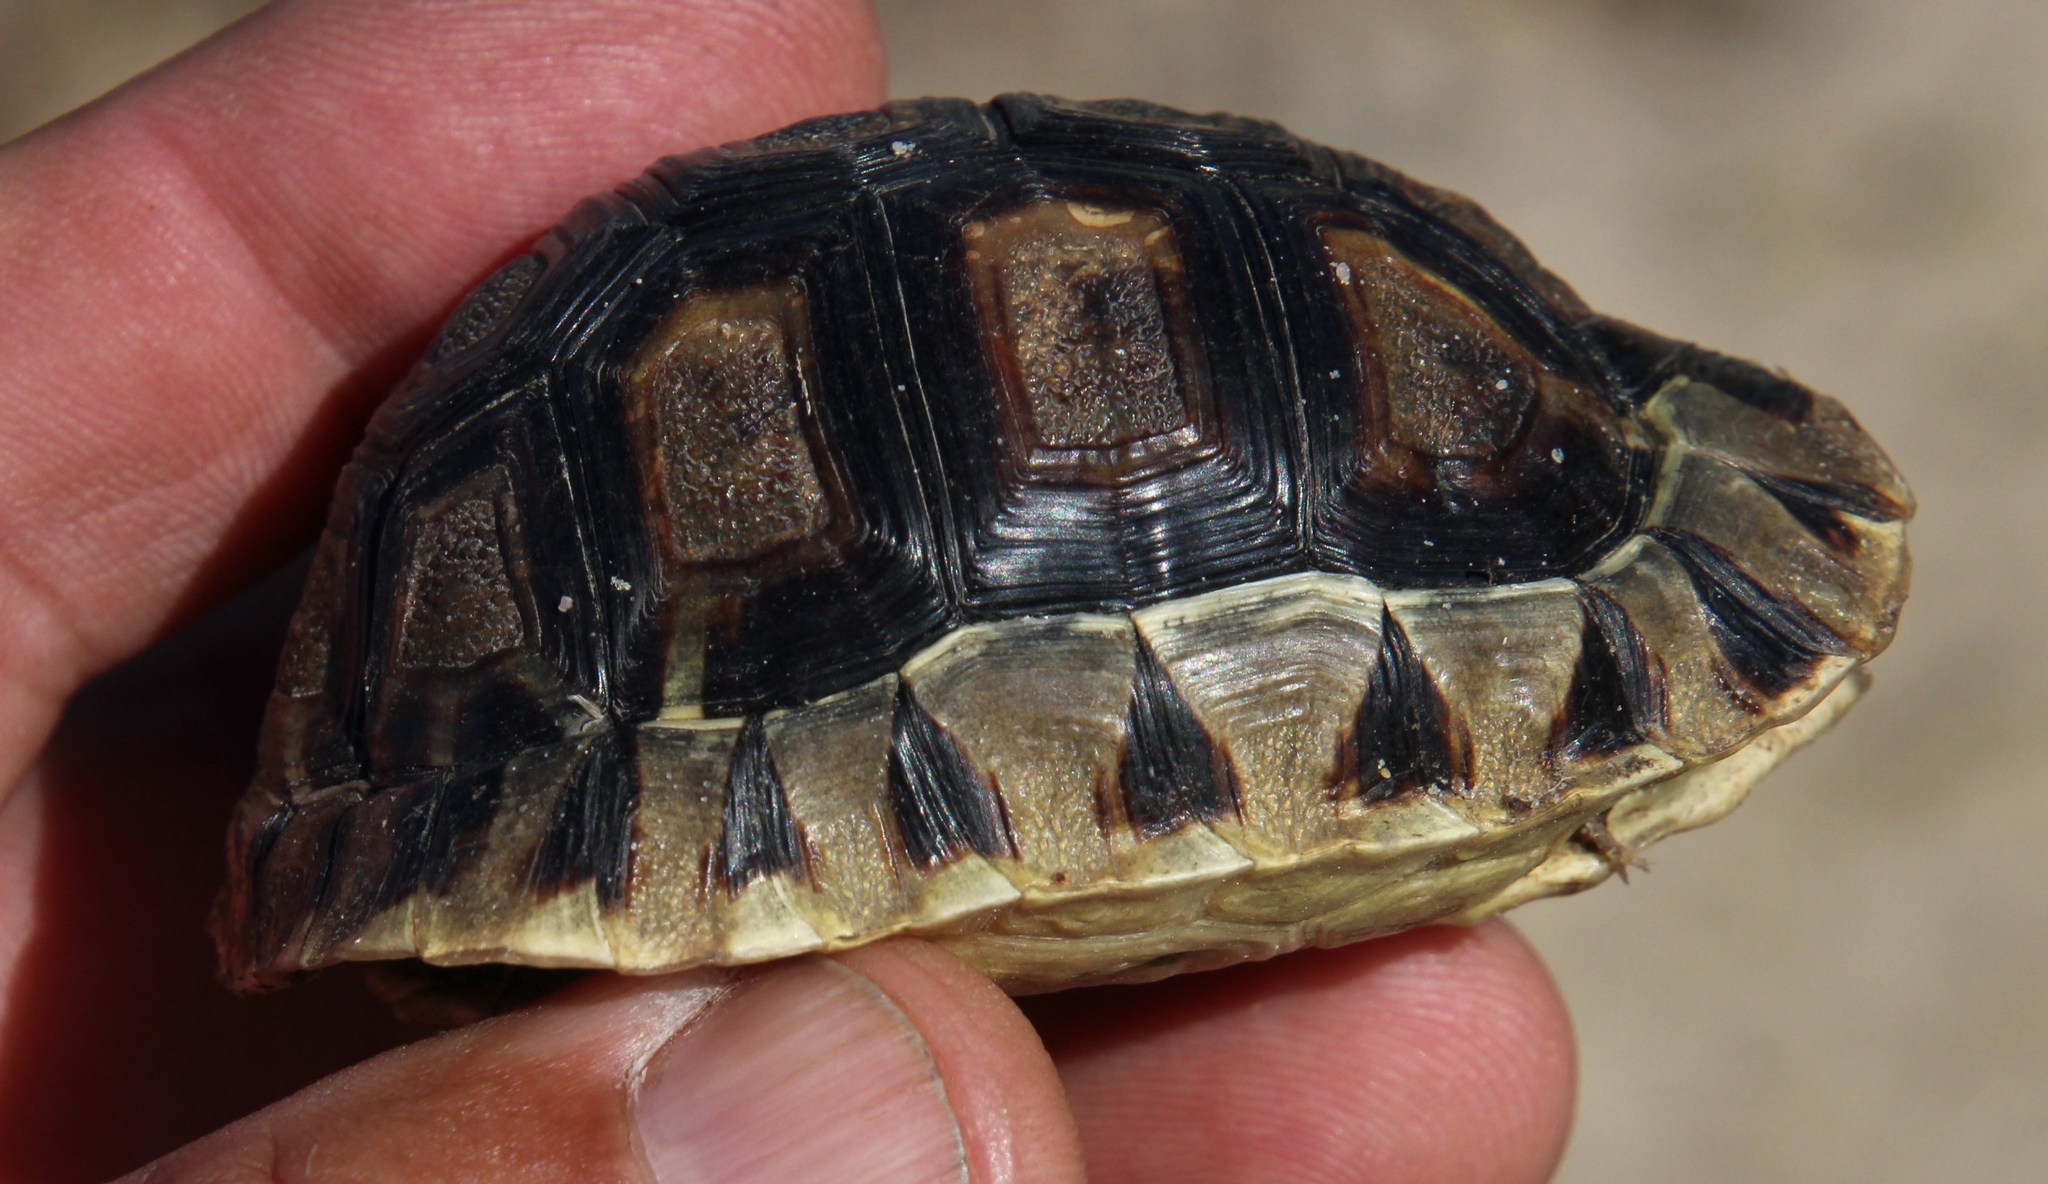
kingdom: Animalia
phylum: Chordata
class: Testudines
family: Testudinidae
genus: Chersina
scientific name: Chersina angulata
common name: South african bowsprit tortoise
